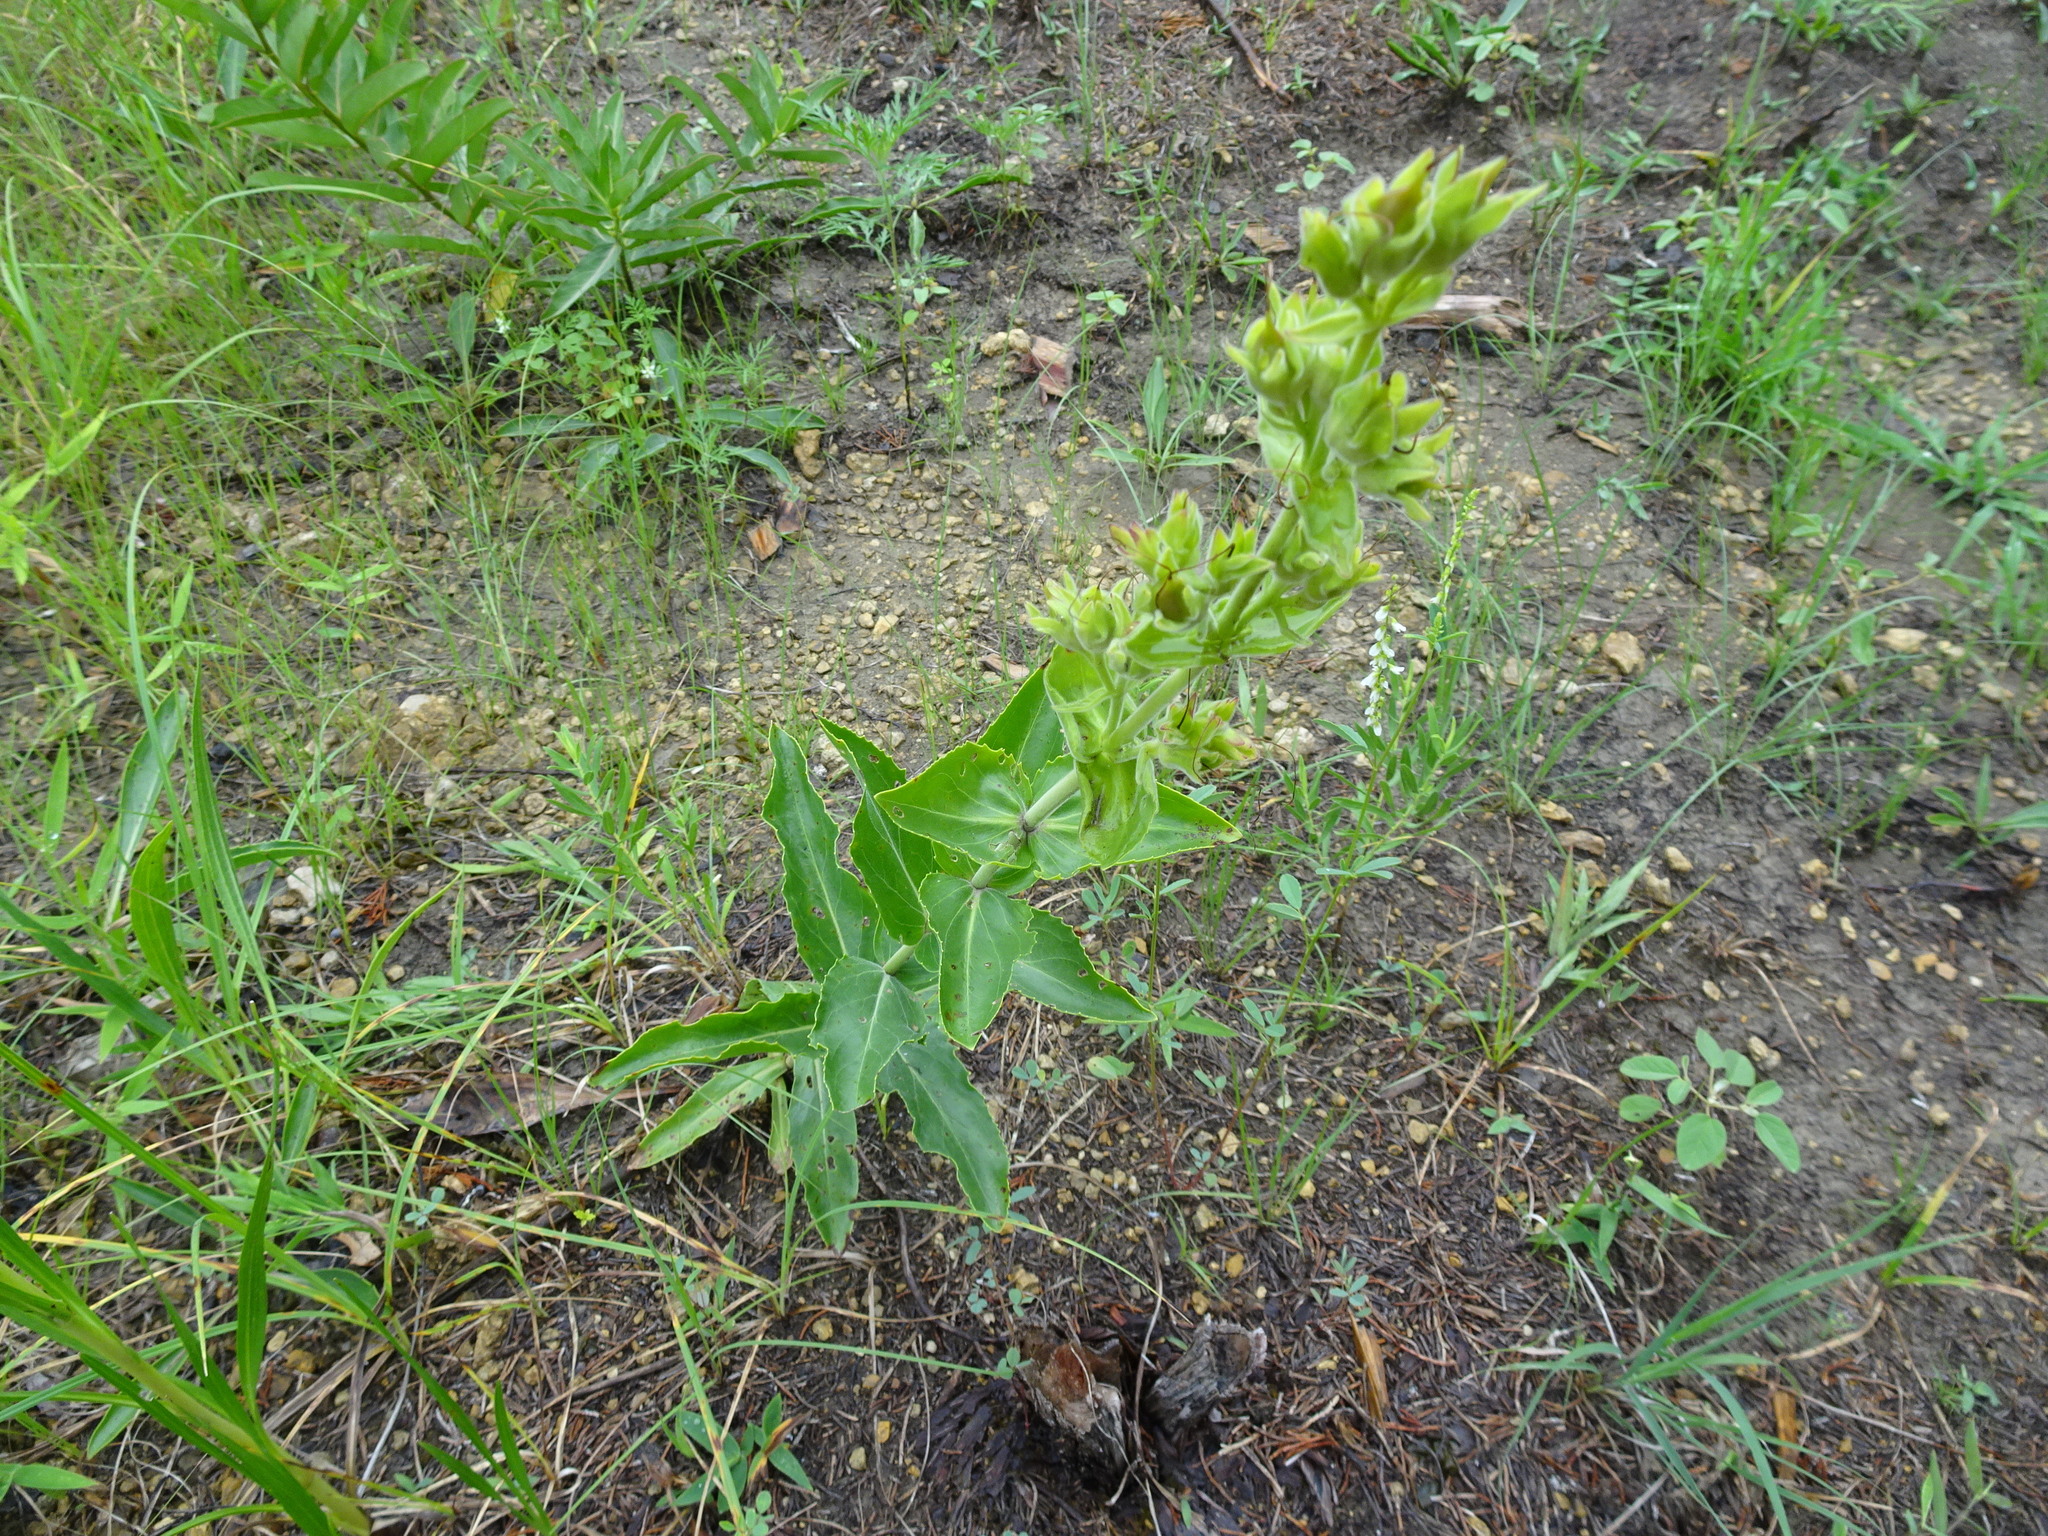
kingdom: Plantae
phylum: Tracheophyta
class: Magnoliopsida
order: Lamiales
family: Plantaginaceae
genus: Penstemon
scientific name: Penstemon cobaea
